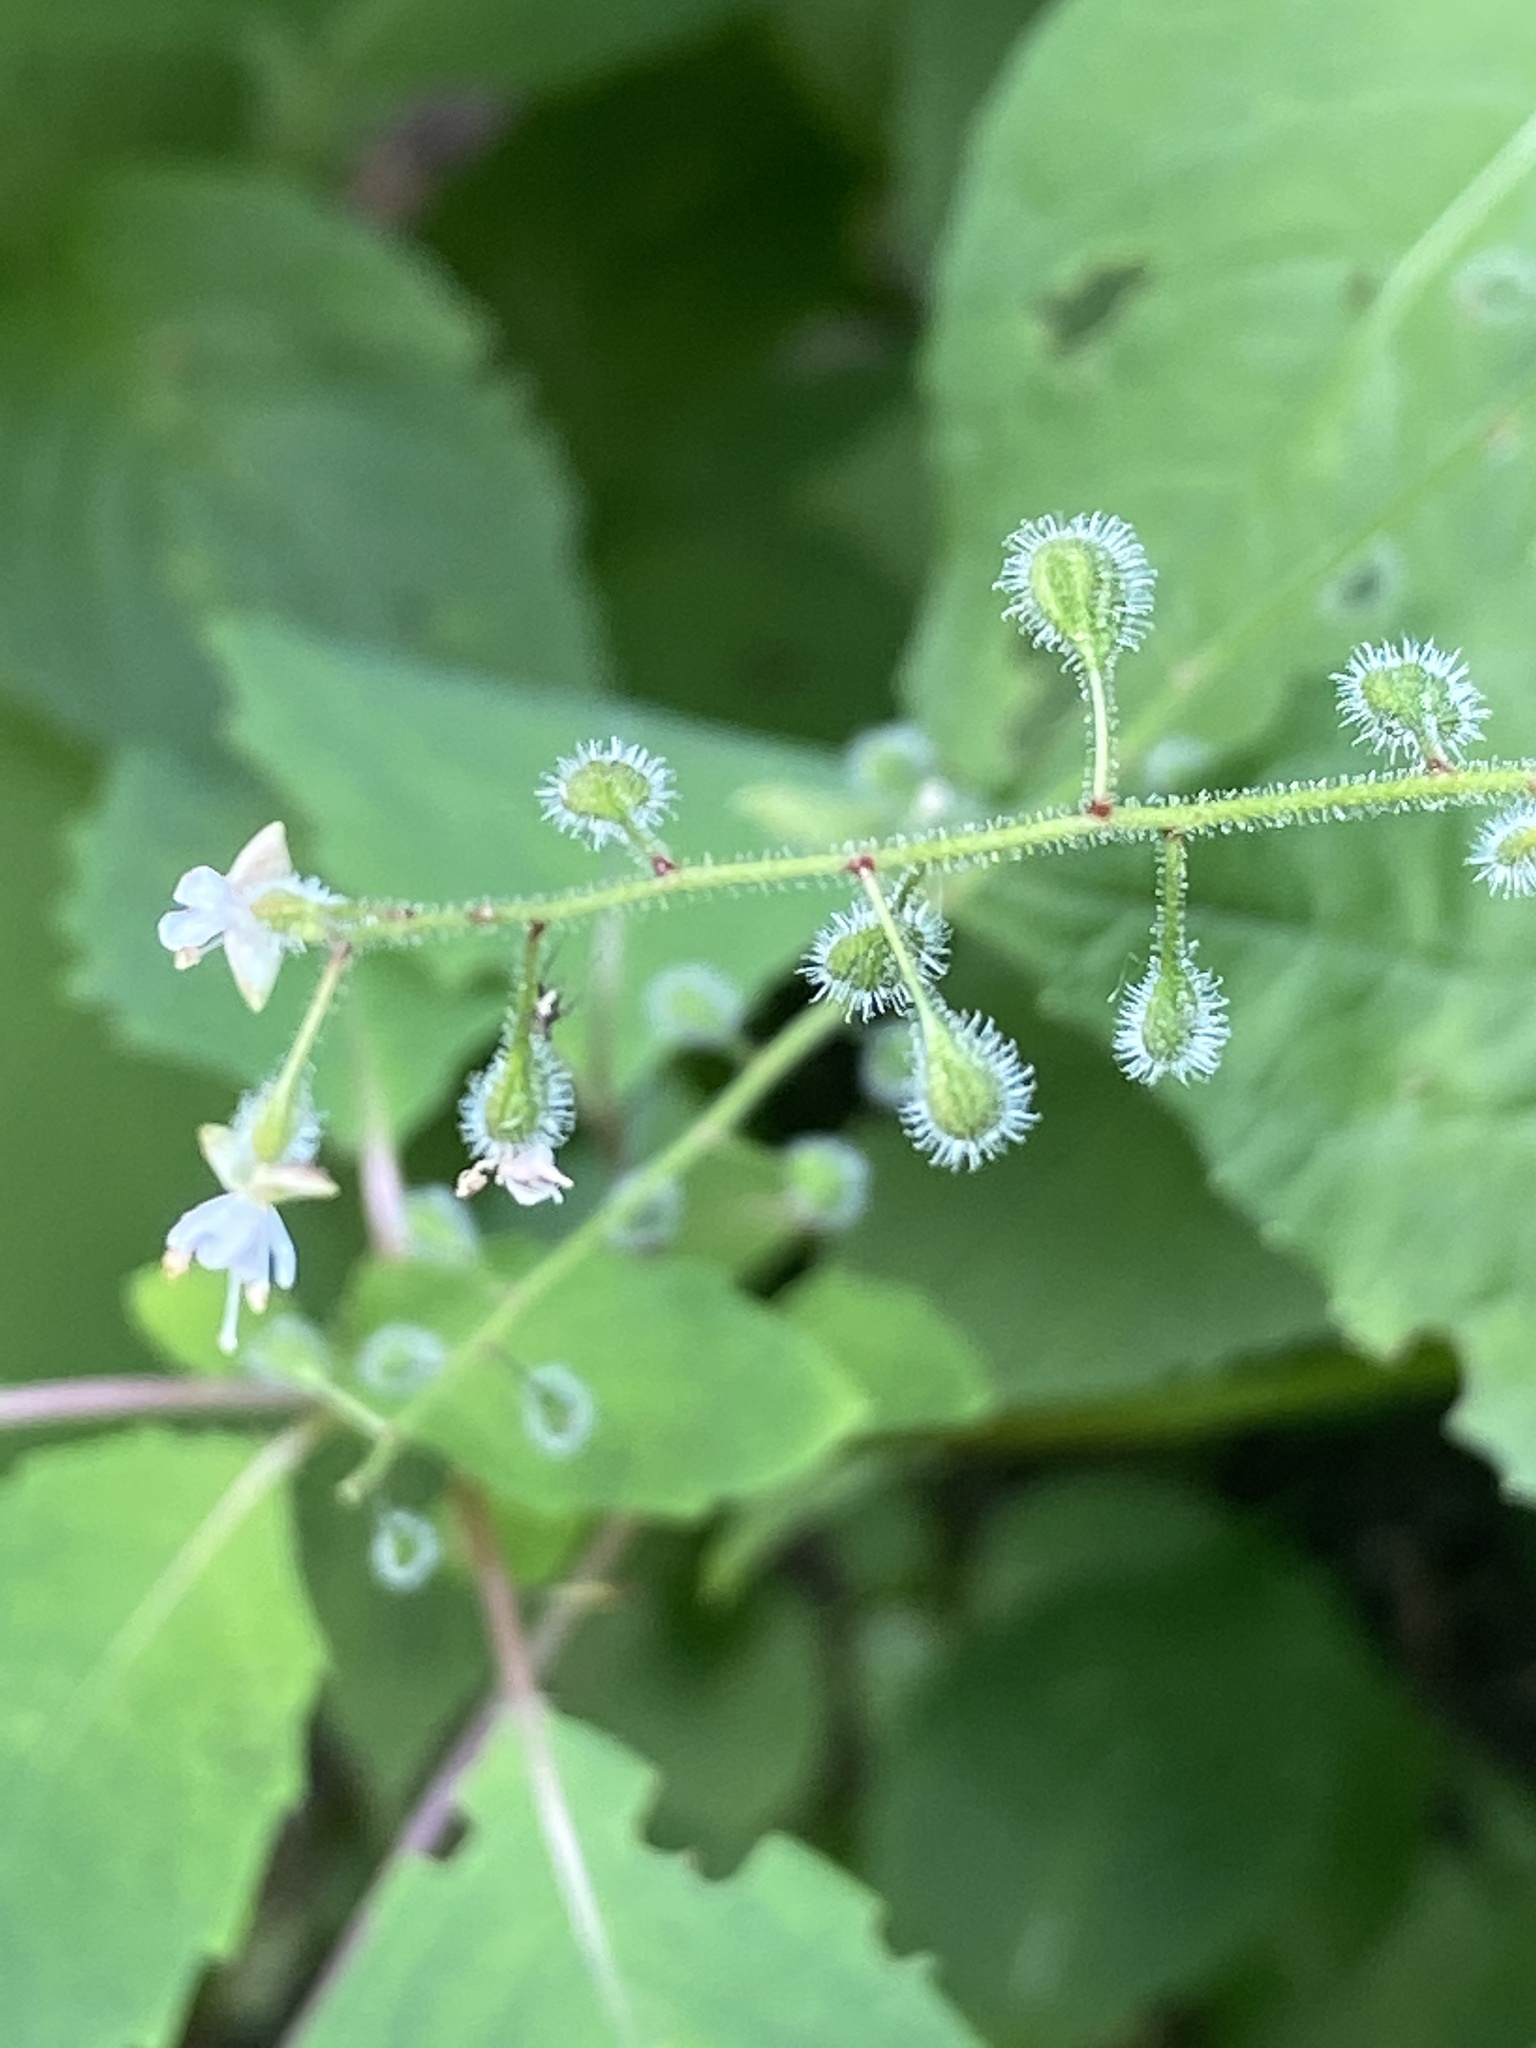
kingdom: Plantae
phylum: Tracheophyta
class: Magnoliopsida
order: Myrtales
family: Onagraceae
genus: Circaea
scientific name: Circaea canadensis
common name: Broad-leaved enchanter's nightshade
